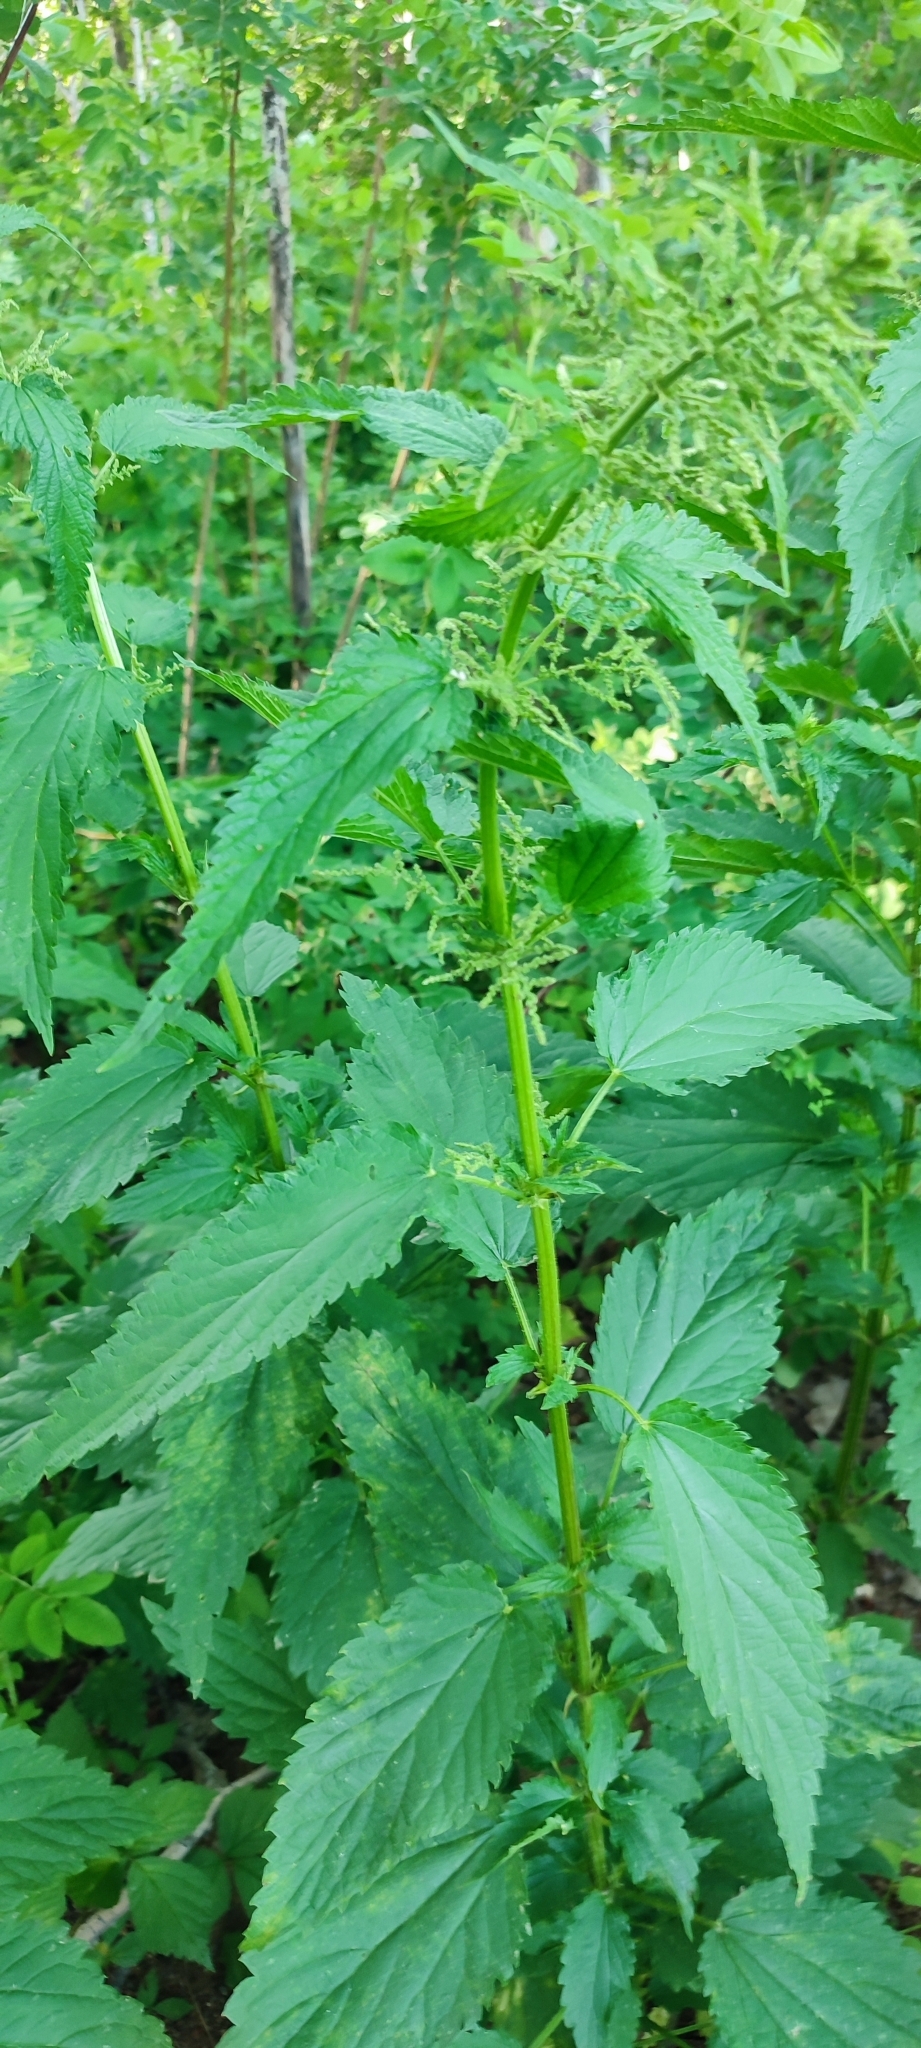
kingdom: Plantae
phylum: Tracheophyta
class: Magnoliopsida
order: Rosales
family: Urticaceae
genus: Urtica
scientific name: Urtica dioica
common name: Common nettle
